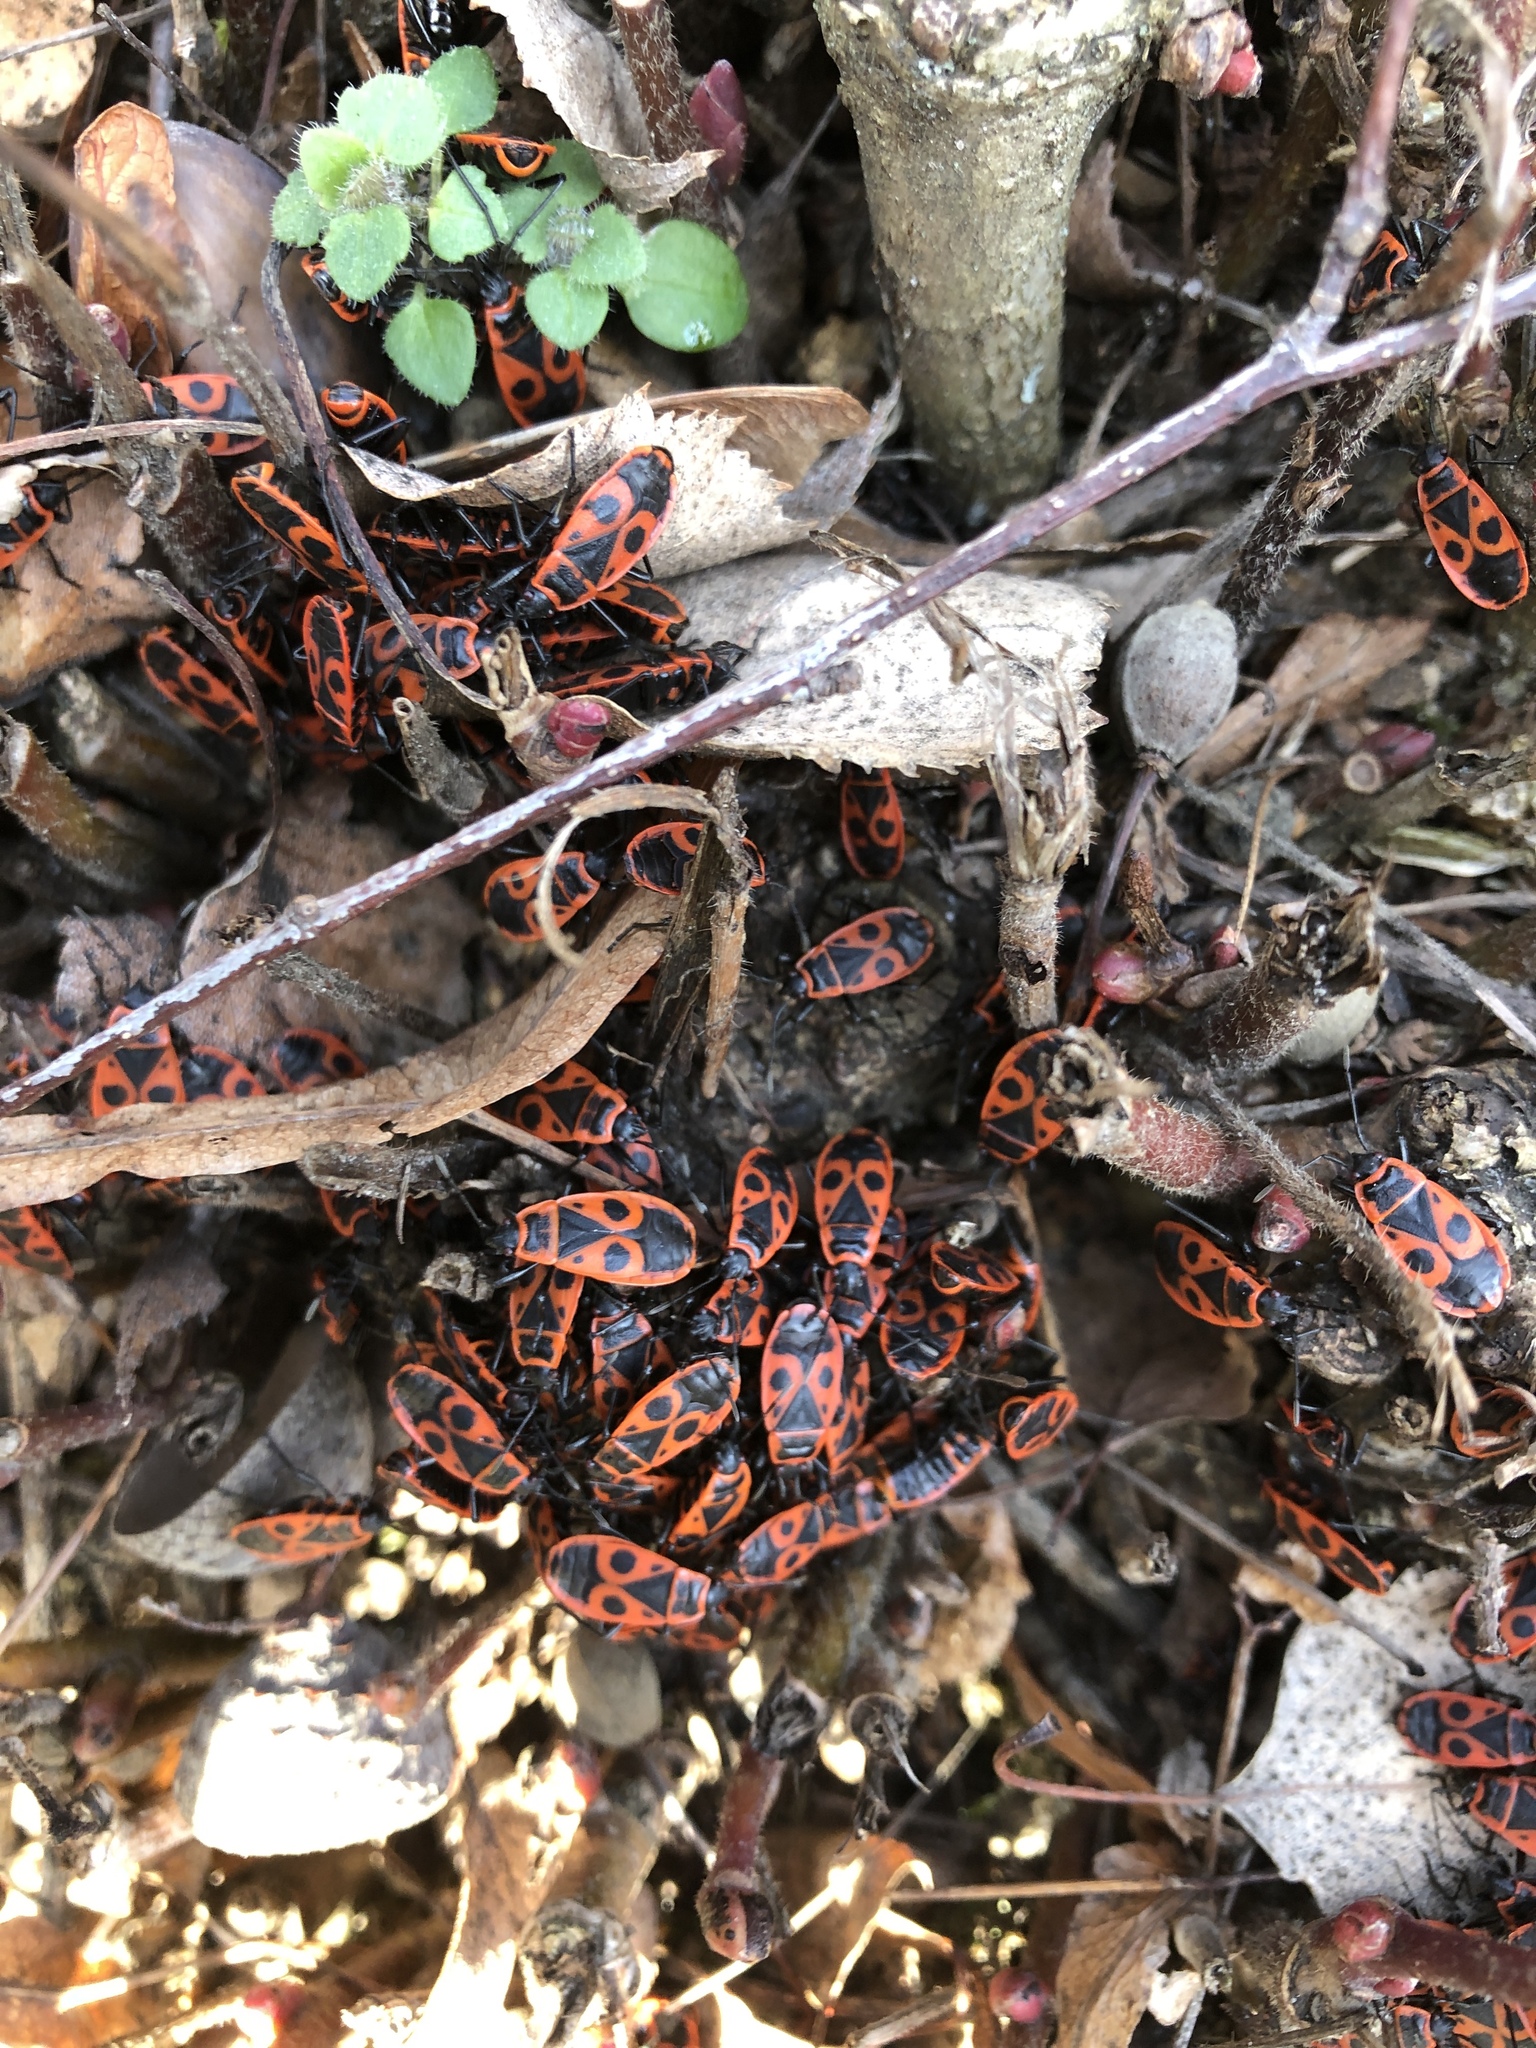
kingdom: Animalia
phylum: Arthropoda
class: Insecta
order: Hemiptera
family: Pyrrhocoridae
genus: Pyrrhocoris
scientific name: Pyrrhocoris apterus
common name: Firebug
